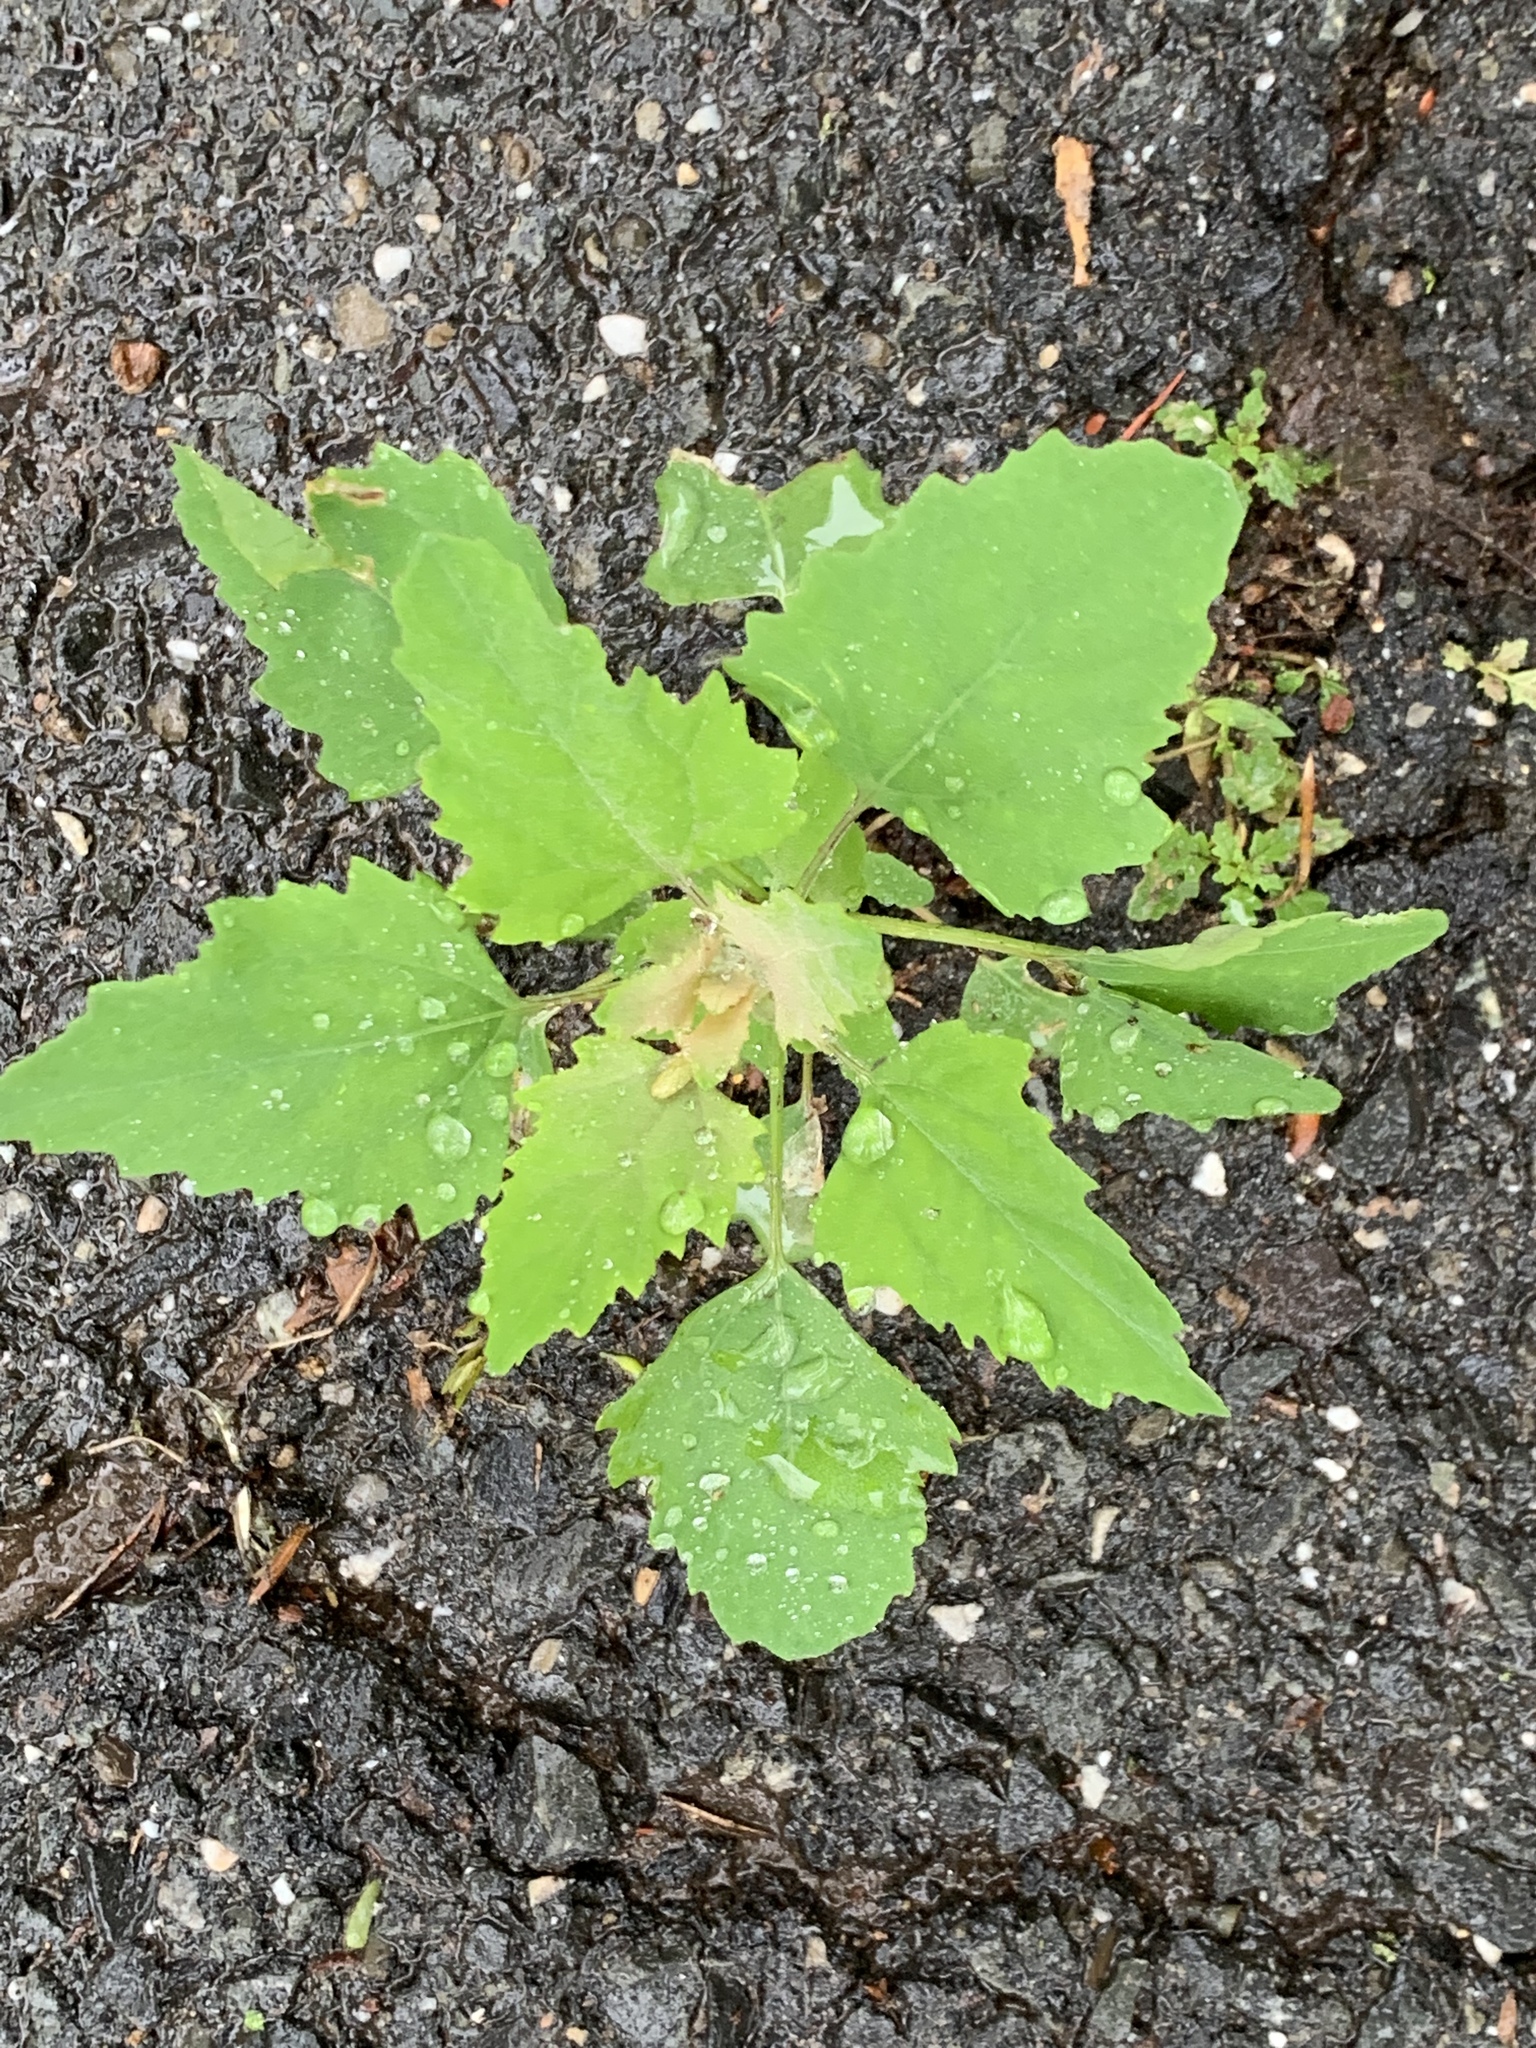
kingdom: Plantae
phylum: Tracheophyta
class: Magnoliopsida
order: Caryophyllales
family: Amaranthaceae
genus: Chenopodium
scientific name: Chenopodium album
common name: Fat-hen
